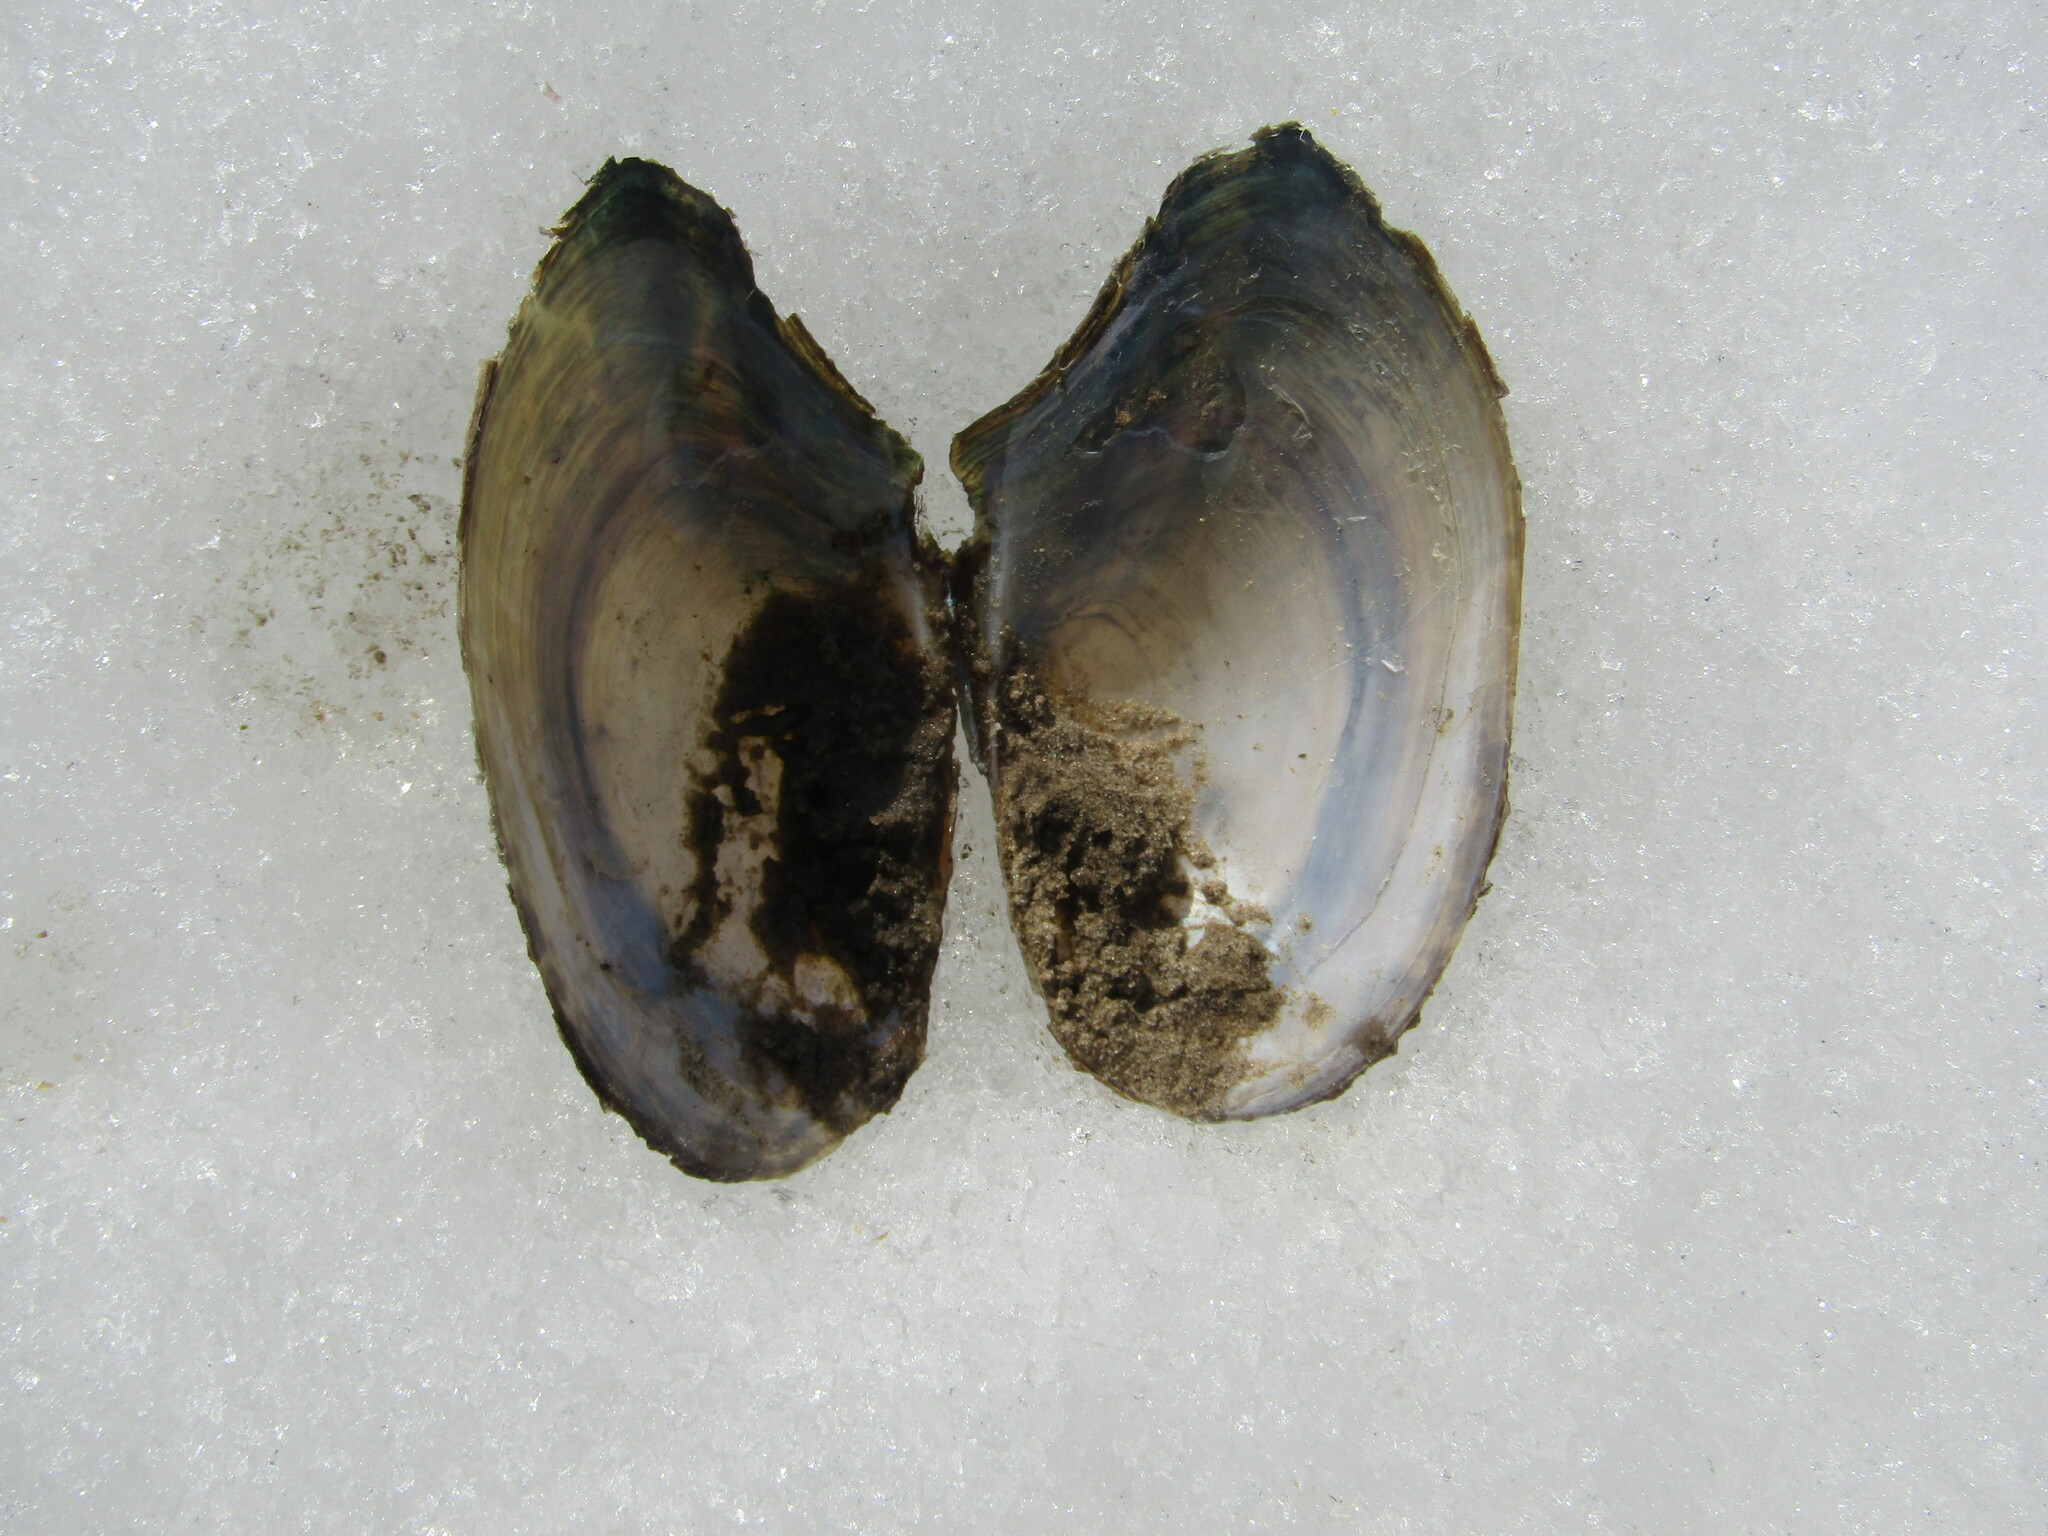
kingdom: Animalia
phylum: Mollusca
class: Bivalvia
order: Unionida
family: Unionidae
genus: Anodonta
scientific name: Anodonta anatina
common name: Duck mussel
